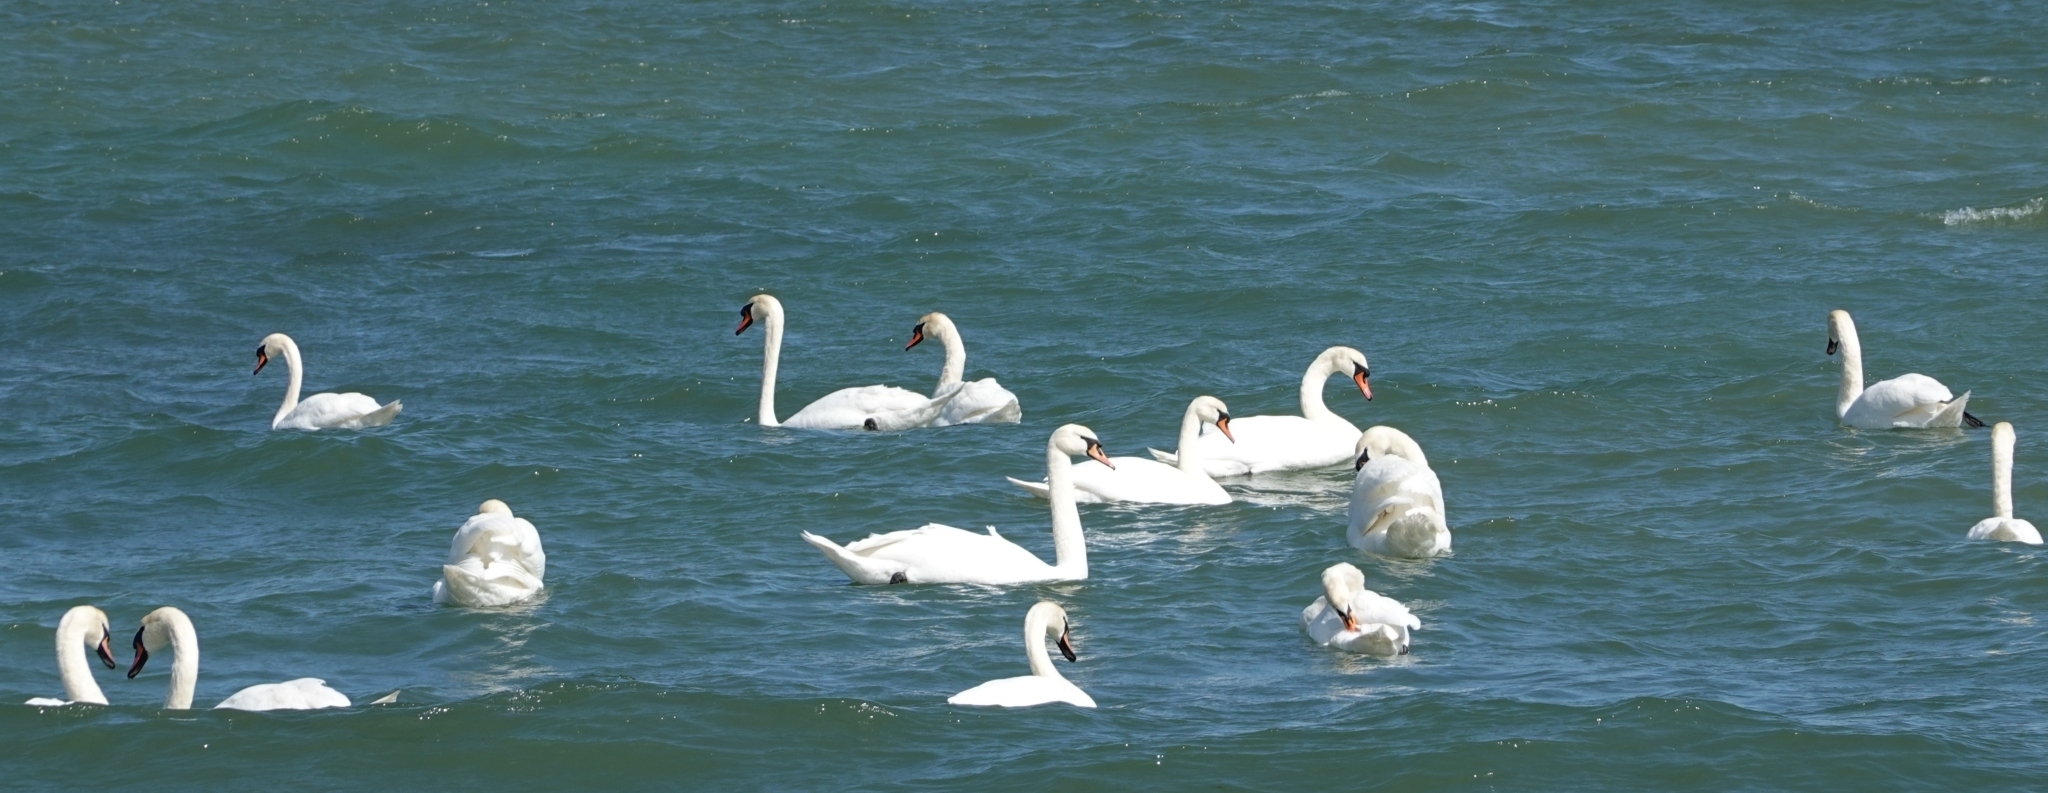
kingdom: Animalia
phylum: Chordata
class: Aves
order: Anseriformes
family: Anatidae
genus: Cygnus
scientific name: Cygnus olor
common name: Mute swan
